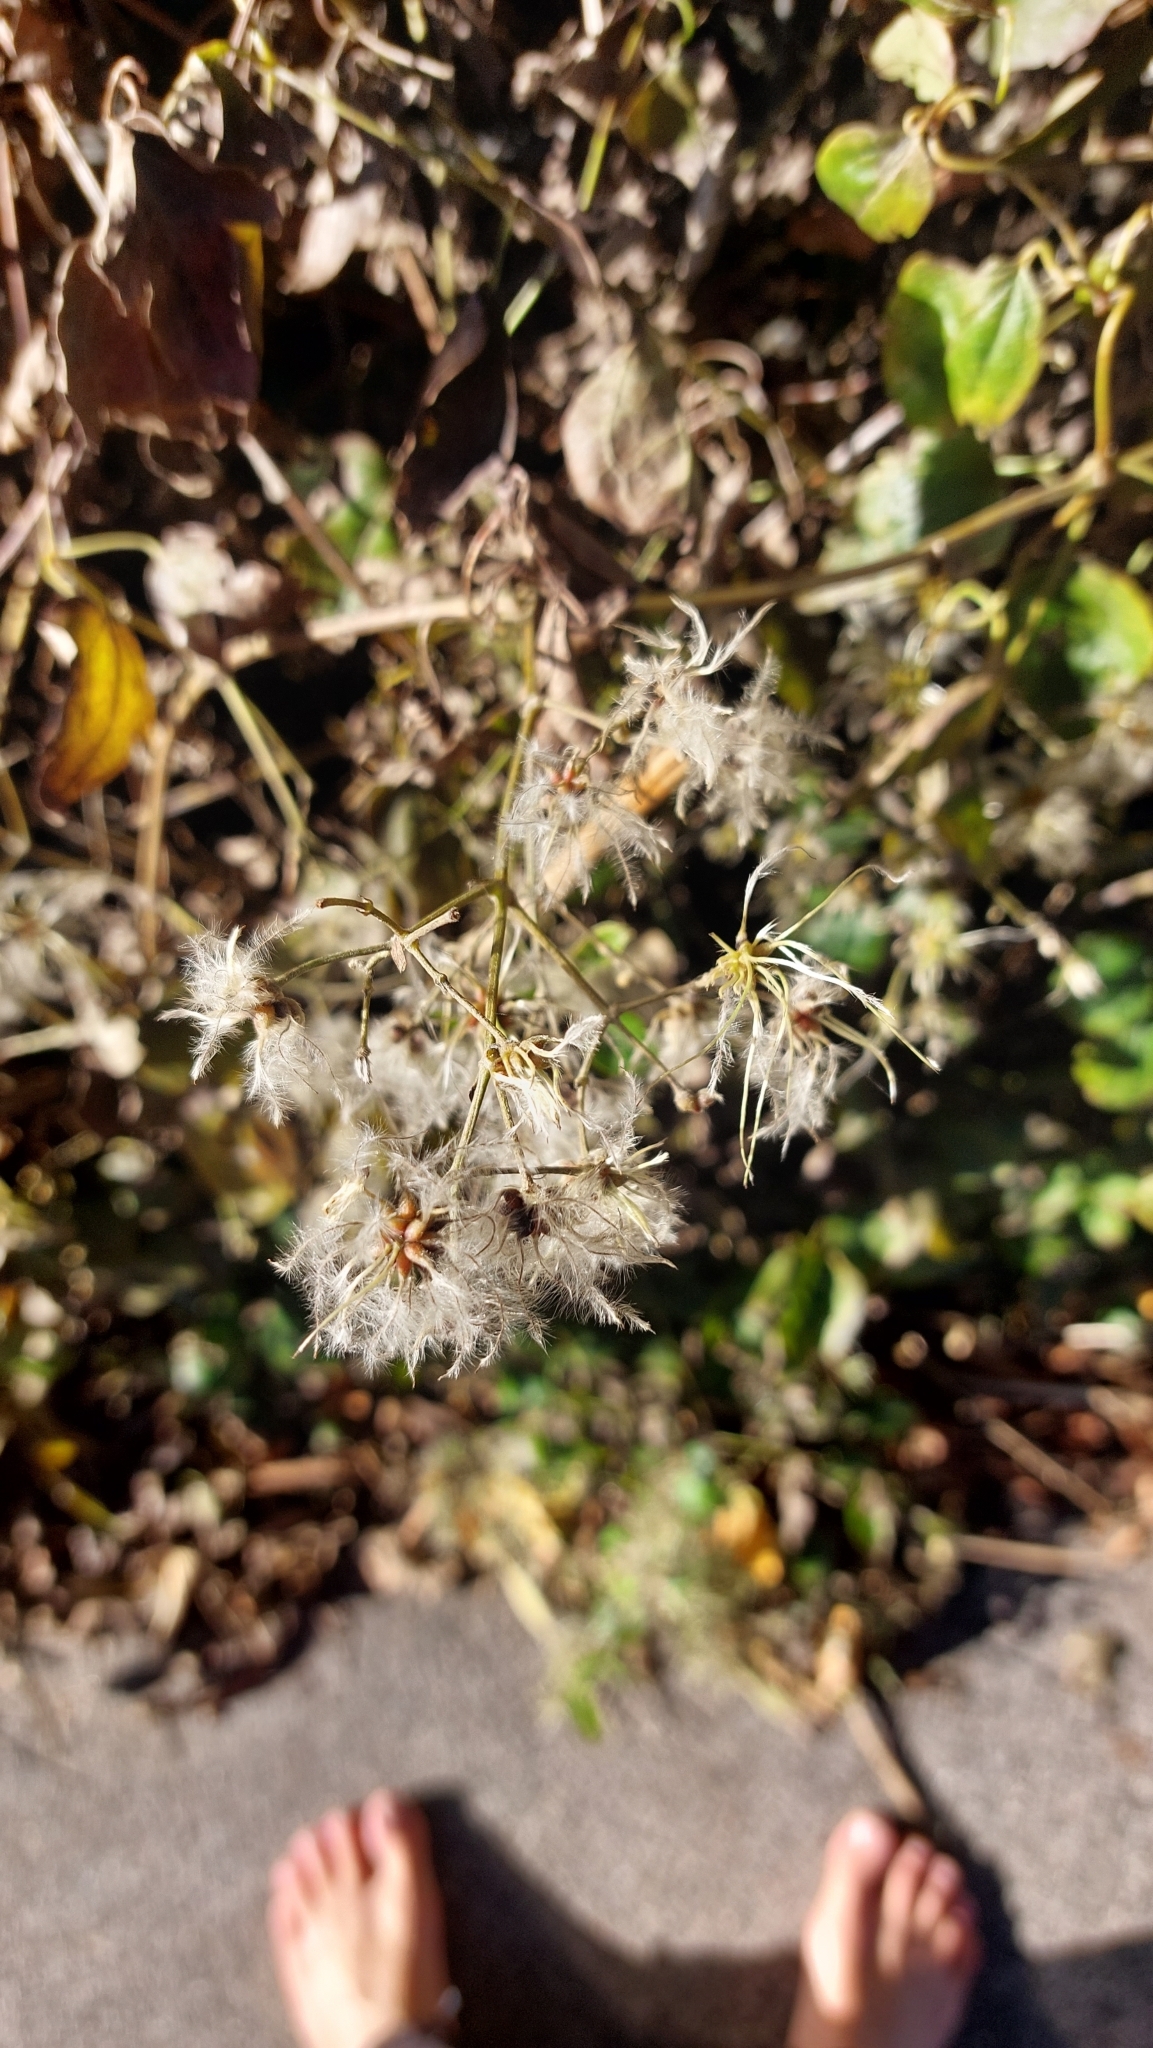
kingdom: Plantae
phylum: Tracheophyta
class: Magnoliopsida
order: Ranunculales
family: Ranunculaceae
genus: Clematis
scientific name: Clematis vitalba
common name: Evergreen clematis
